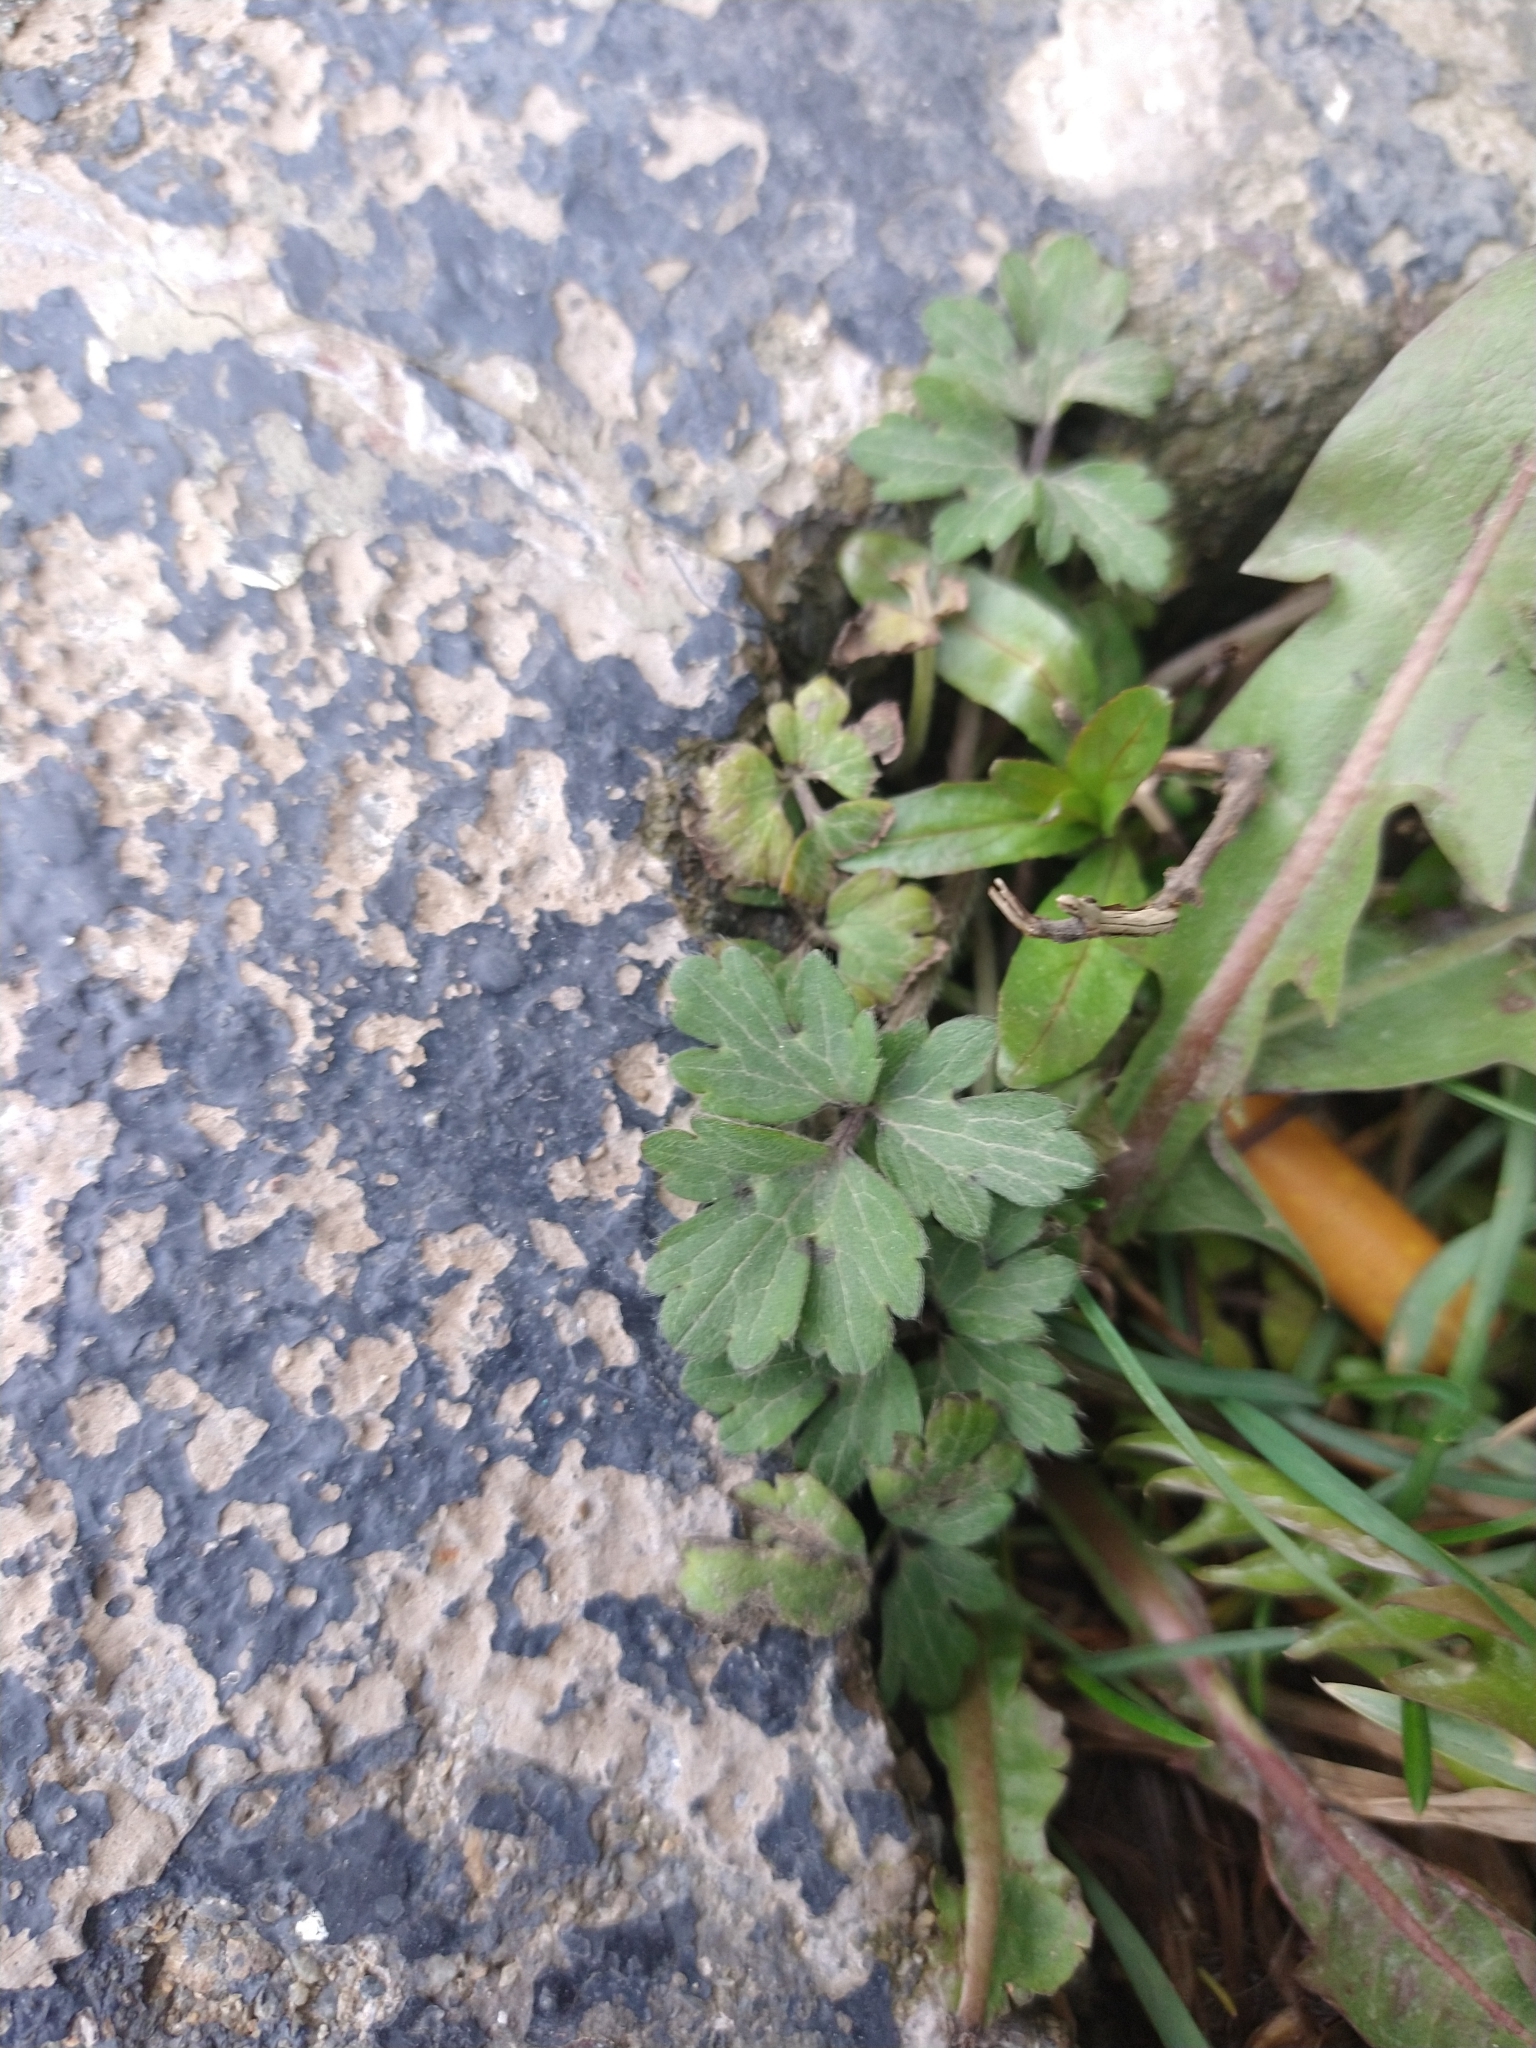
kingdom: Plantae
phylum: Tracheophyta
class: Magnoliopsida
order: Ranunculales
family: Ranunculaceae
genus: Ranunculus
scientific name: Ranunculus repens
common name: Creeping buttercup
